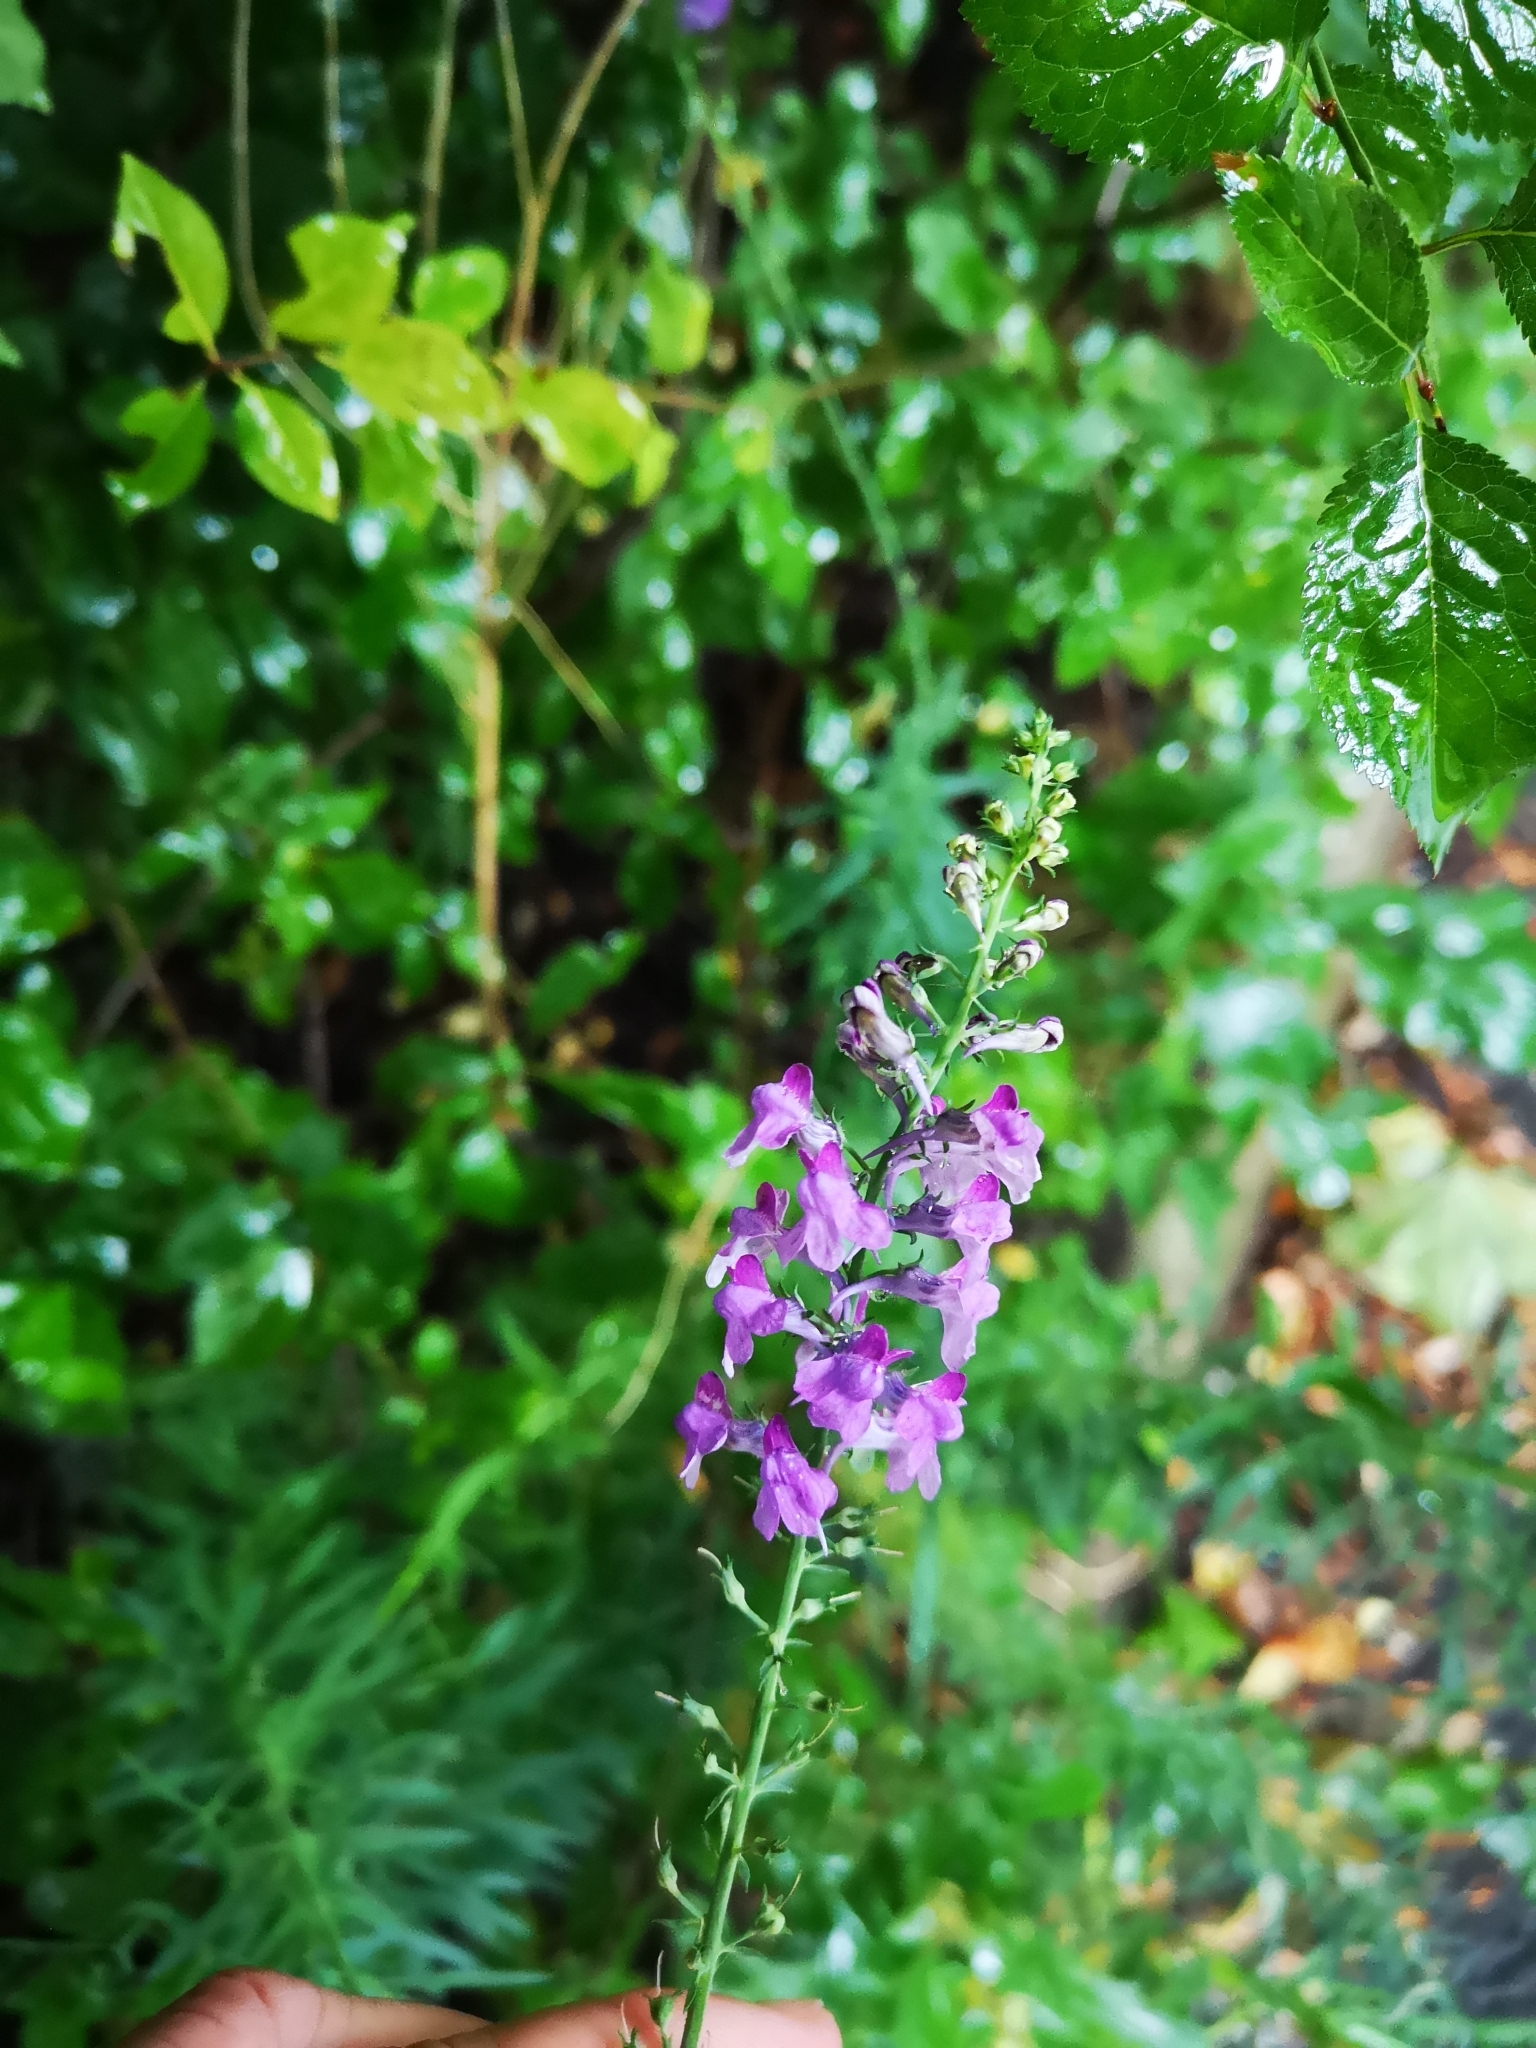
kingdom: Plantae
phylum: Tracheophyta
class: Magnoliopsida
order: Lamiales
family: Plantaginaceae
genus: Linaria
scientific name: Linaria purpurea
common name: Purple toadflax
